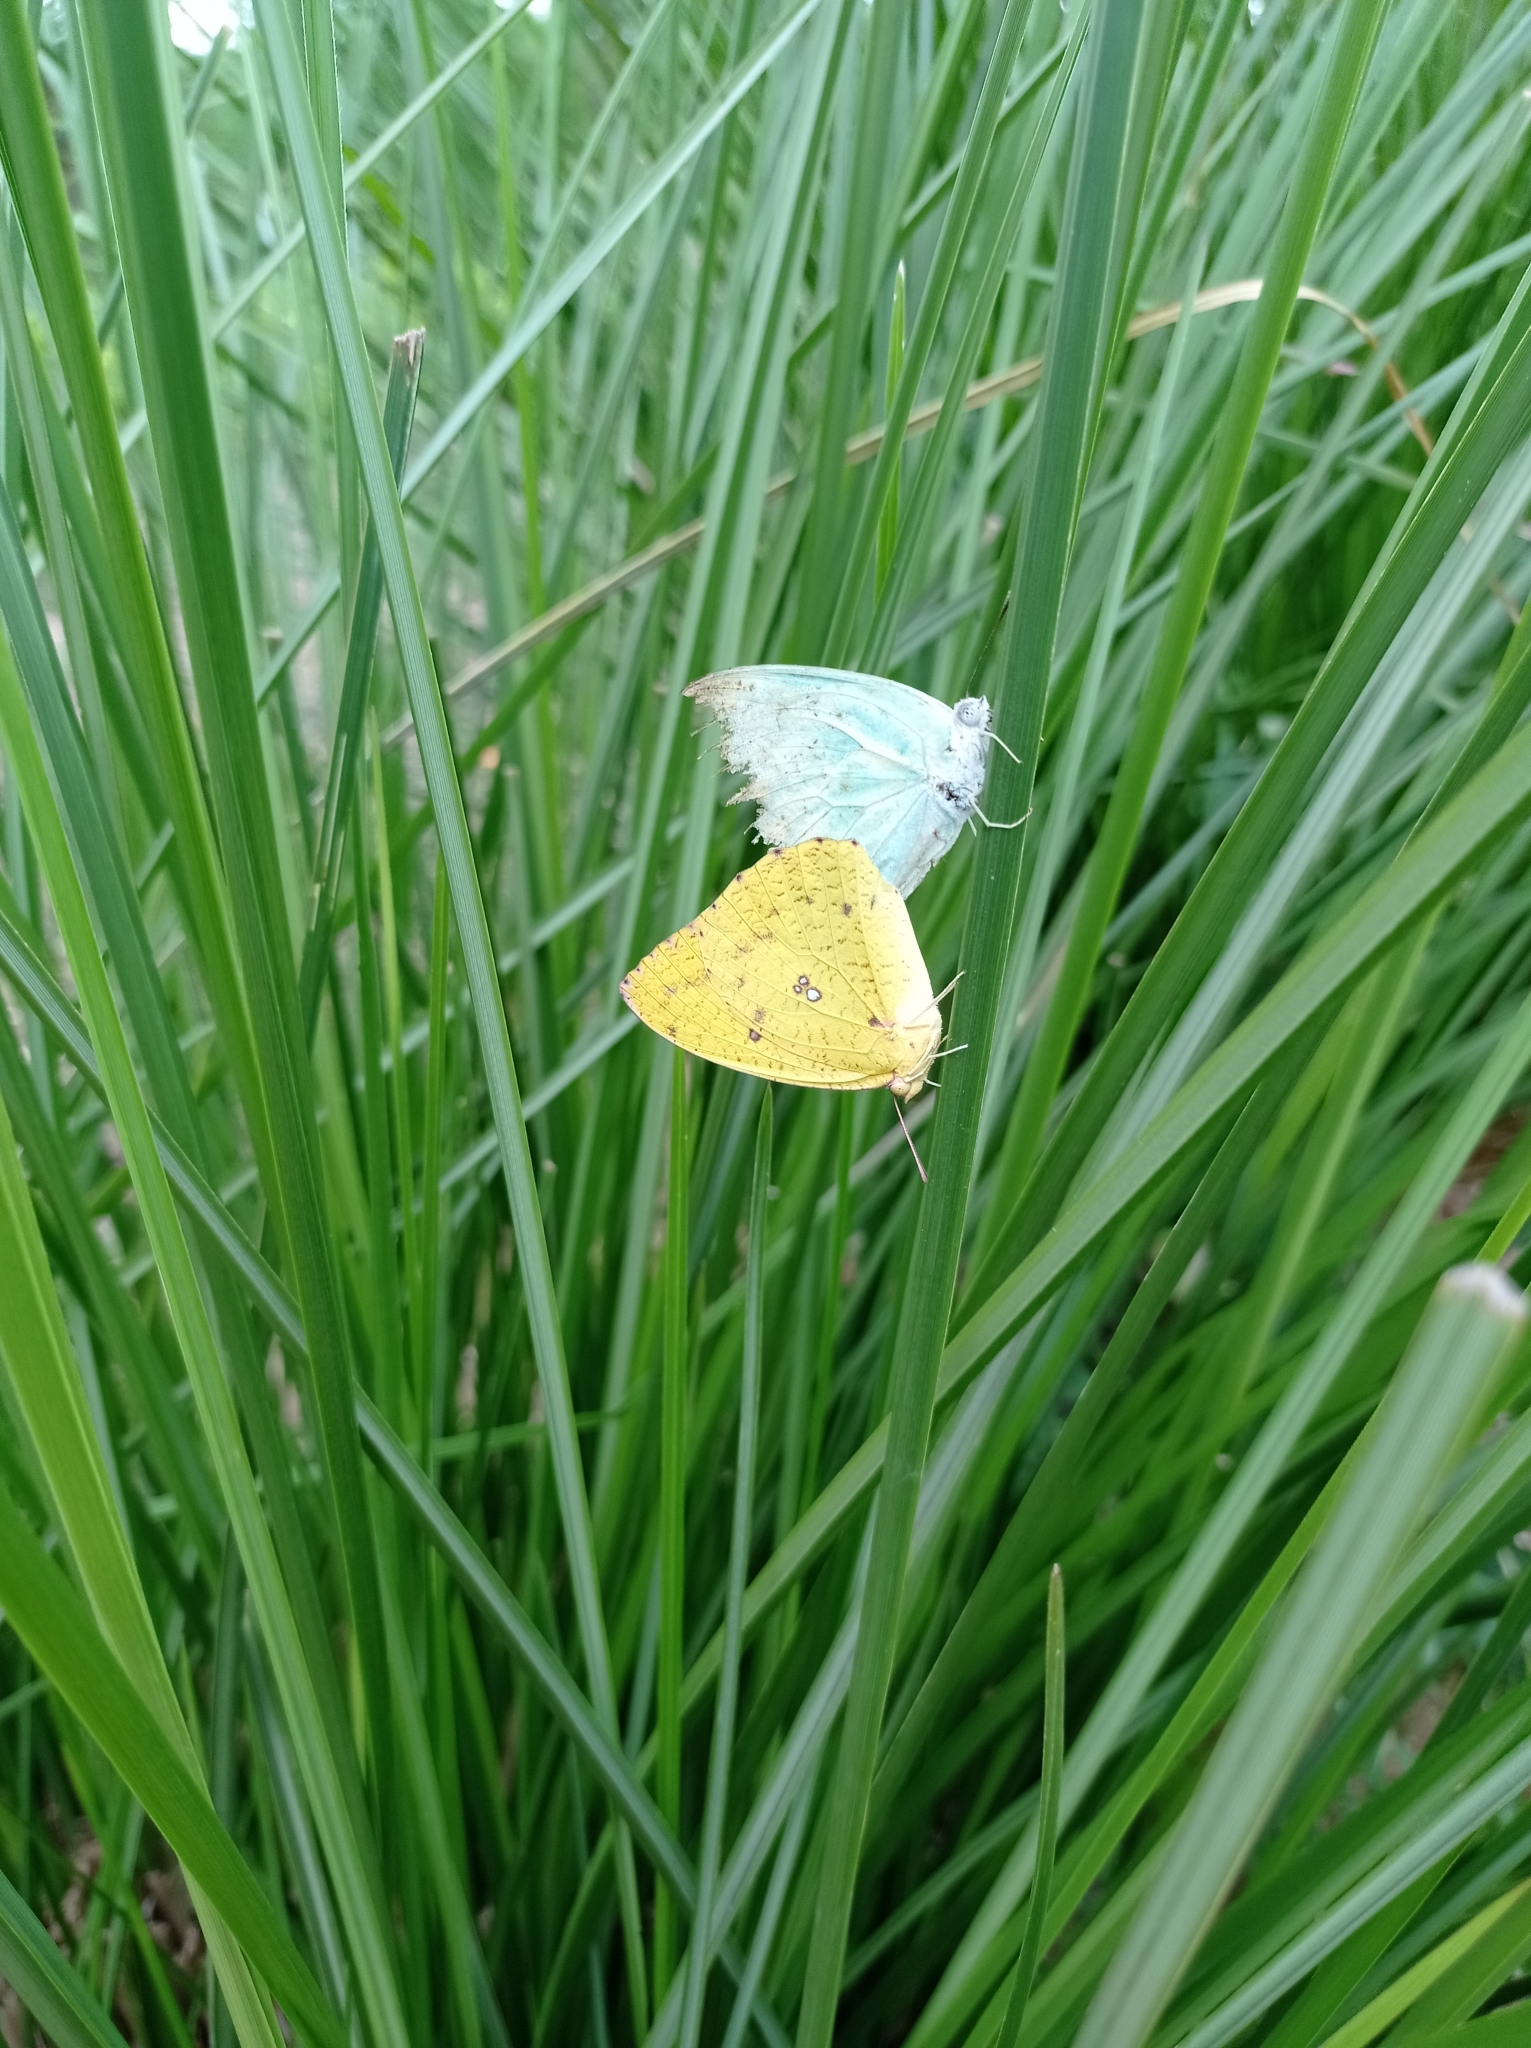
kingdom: Animalia
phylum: Arthropoda
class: Insecta
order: Lepidoptera
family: Pieridae
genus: Catopsilia
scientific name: Catopsilia florella
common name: African migrant
